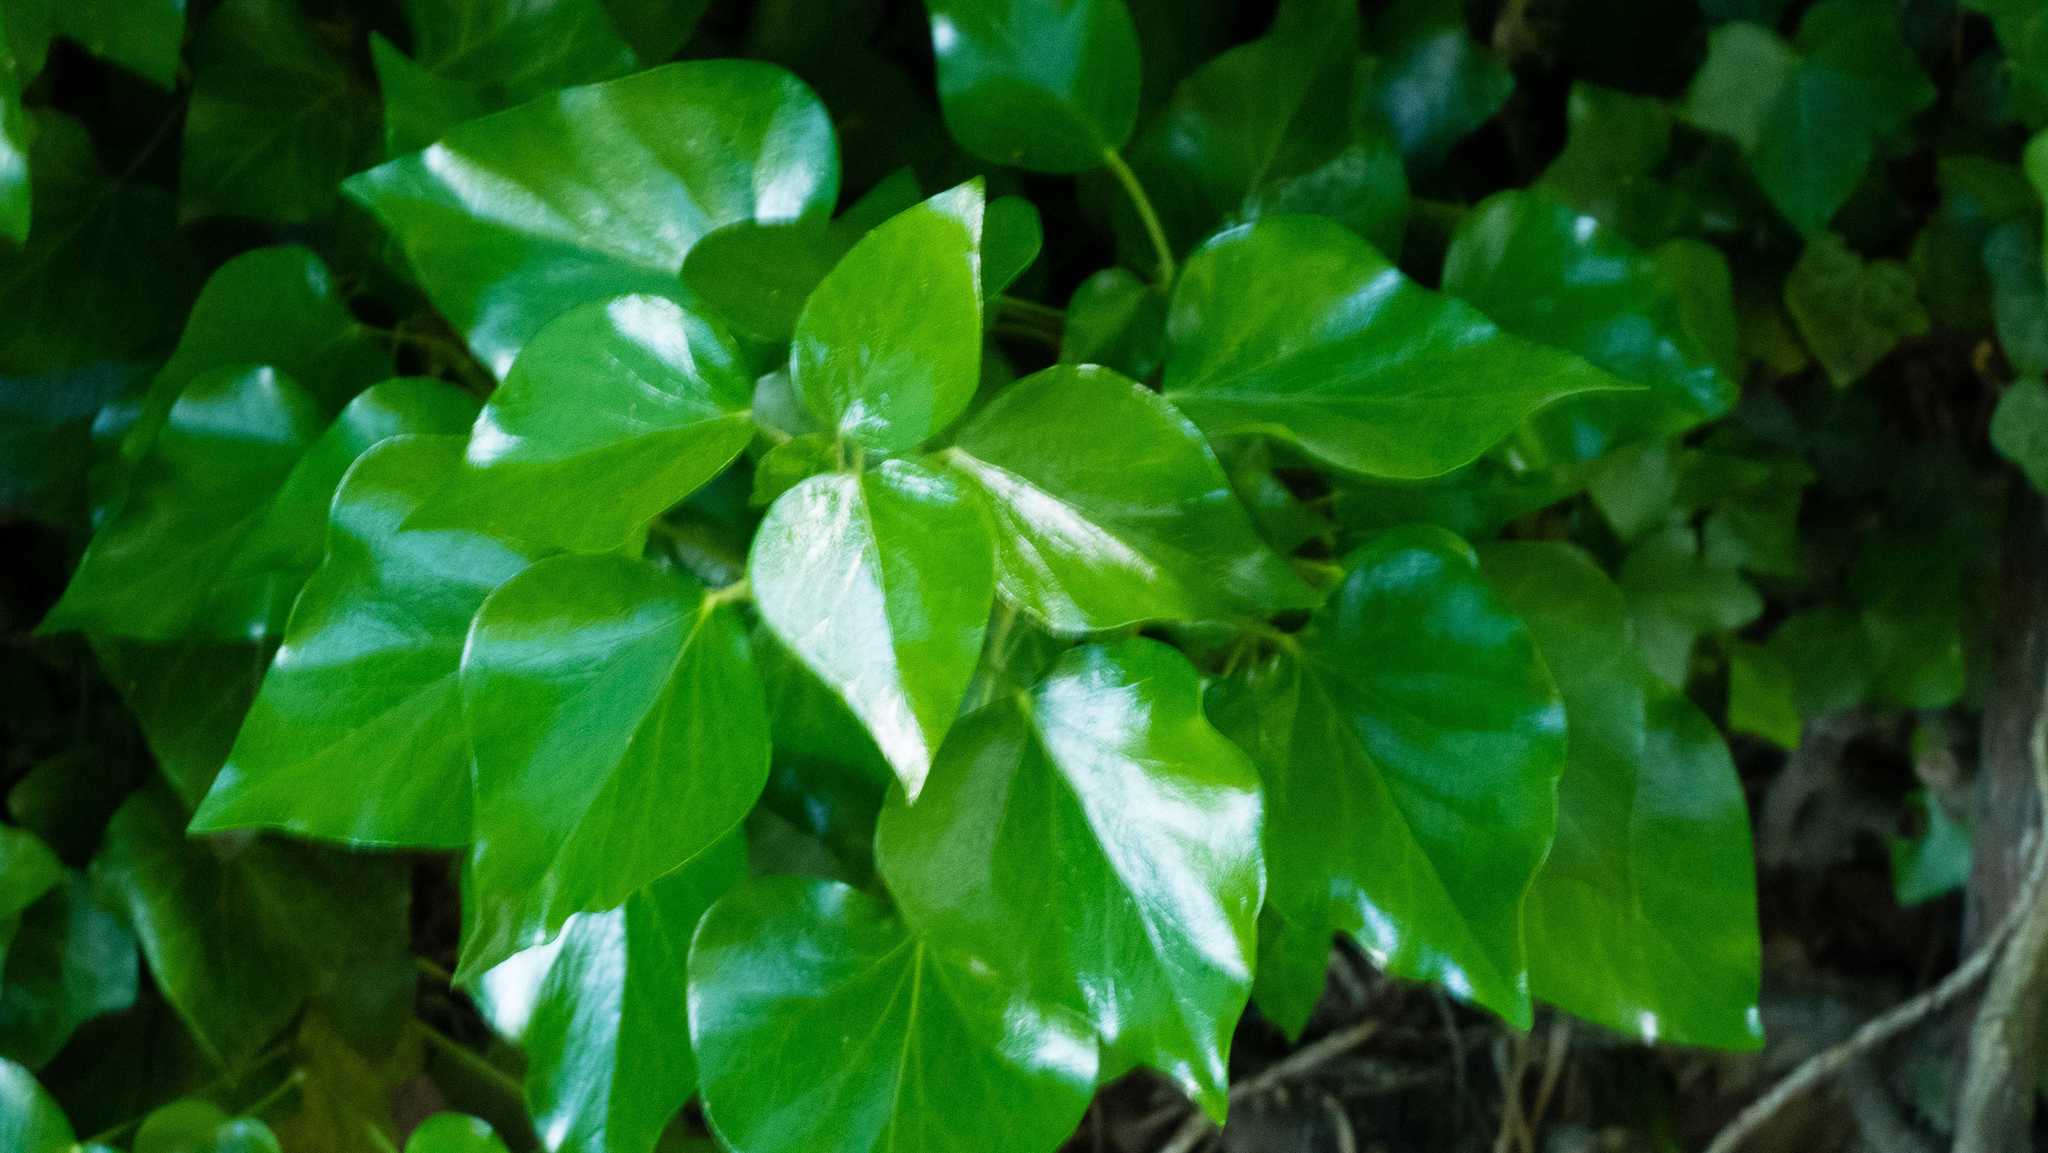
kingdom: Plantae
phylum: Tracheophyta
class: Magnoliopsida
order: Apiales
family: Araliaceae
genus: Hedera
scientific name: Hedera helix
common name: Ivy
